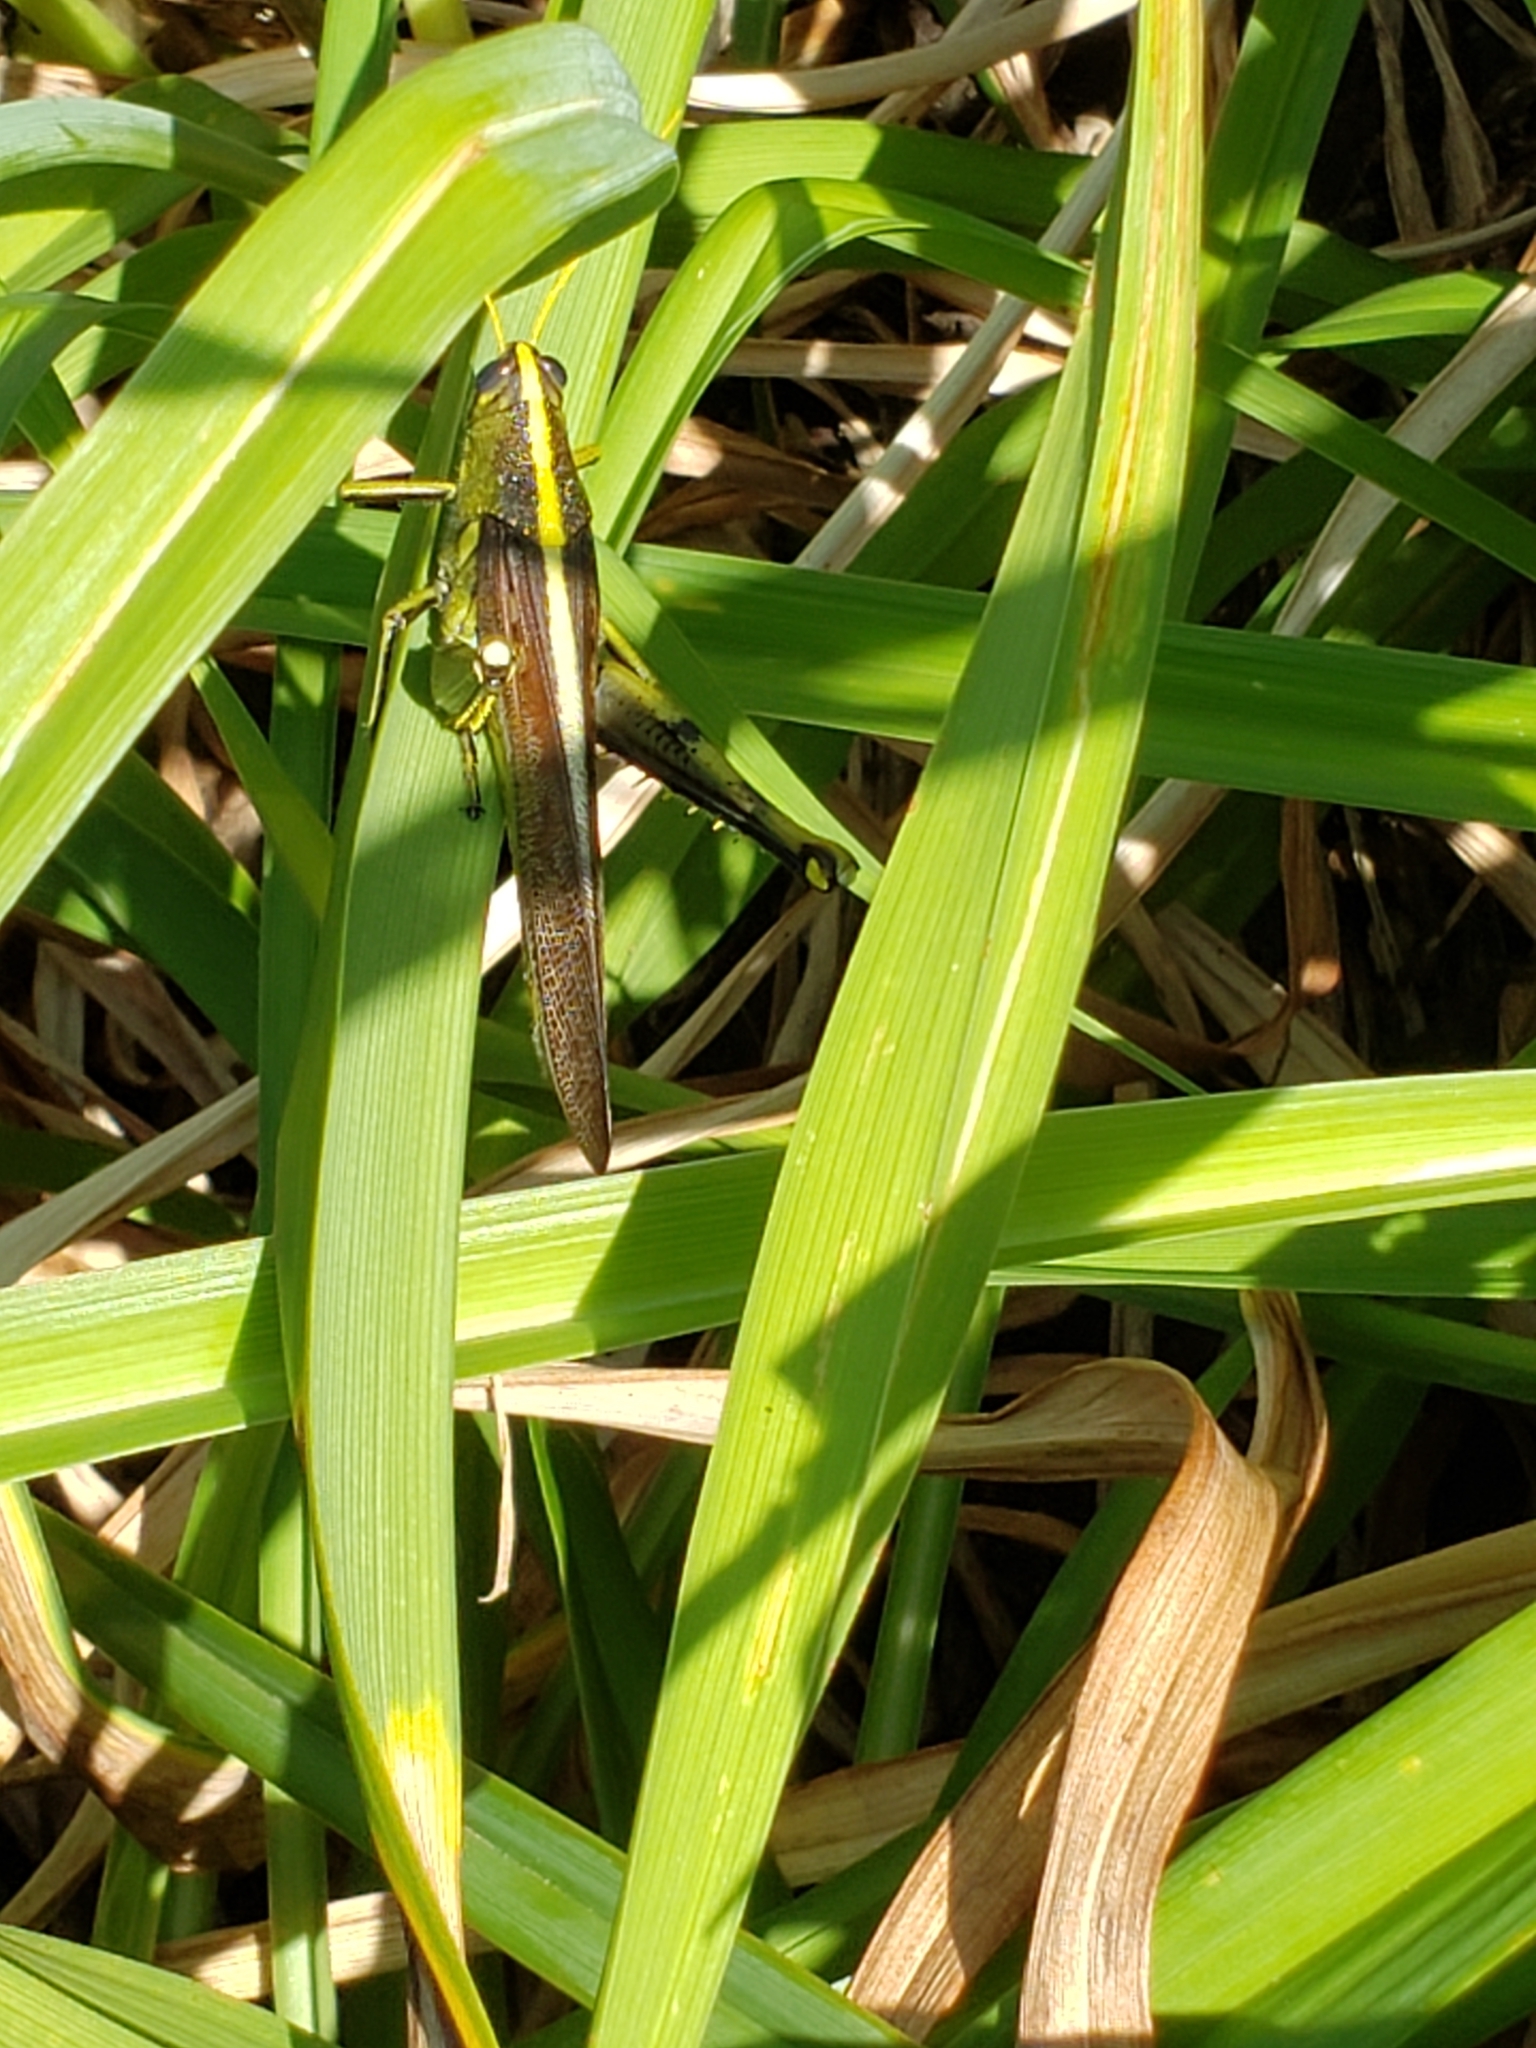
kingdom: Animalia
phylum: Arthropoda
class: Insecta
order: Orthoptera
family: Acrididae
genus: Schistocerca
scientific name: Schistocerca obscura
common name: Obscure bird grasshopper
